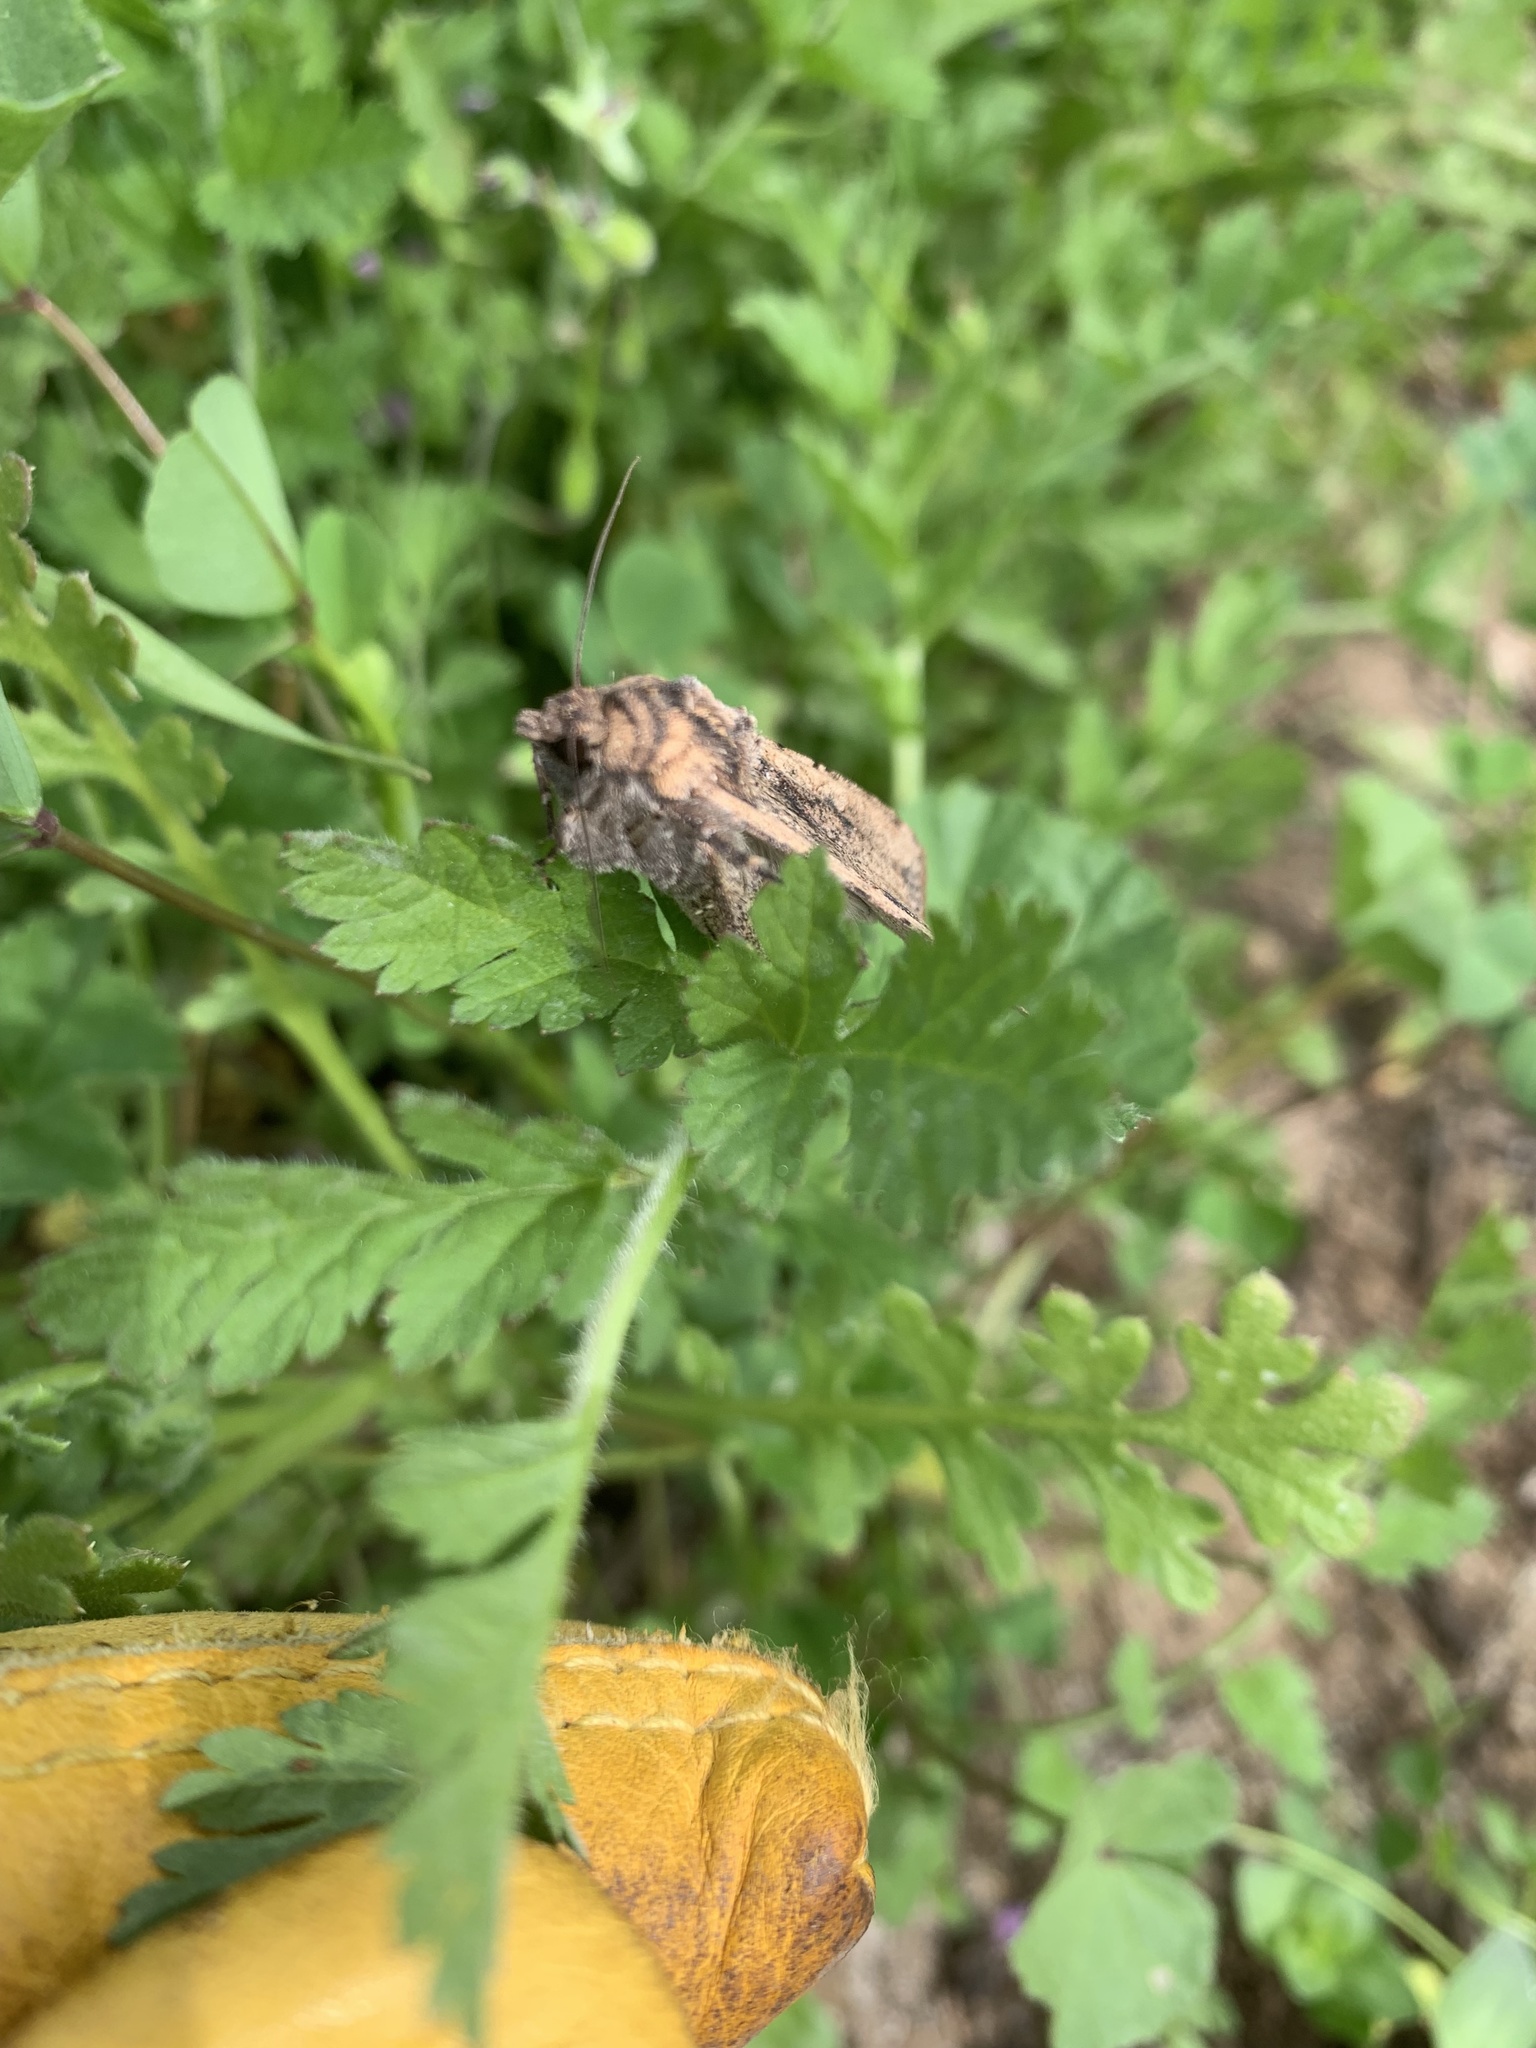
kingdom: Animalia
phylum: Arthropoda
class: Insecta
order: Lepidoptera
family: Noctuidae
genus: Peridroma
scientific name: Peridroma saucia
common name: Pearly underwing
